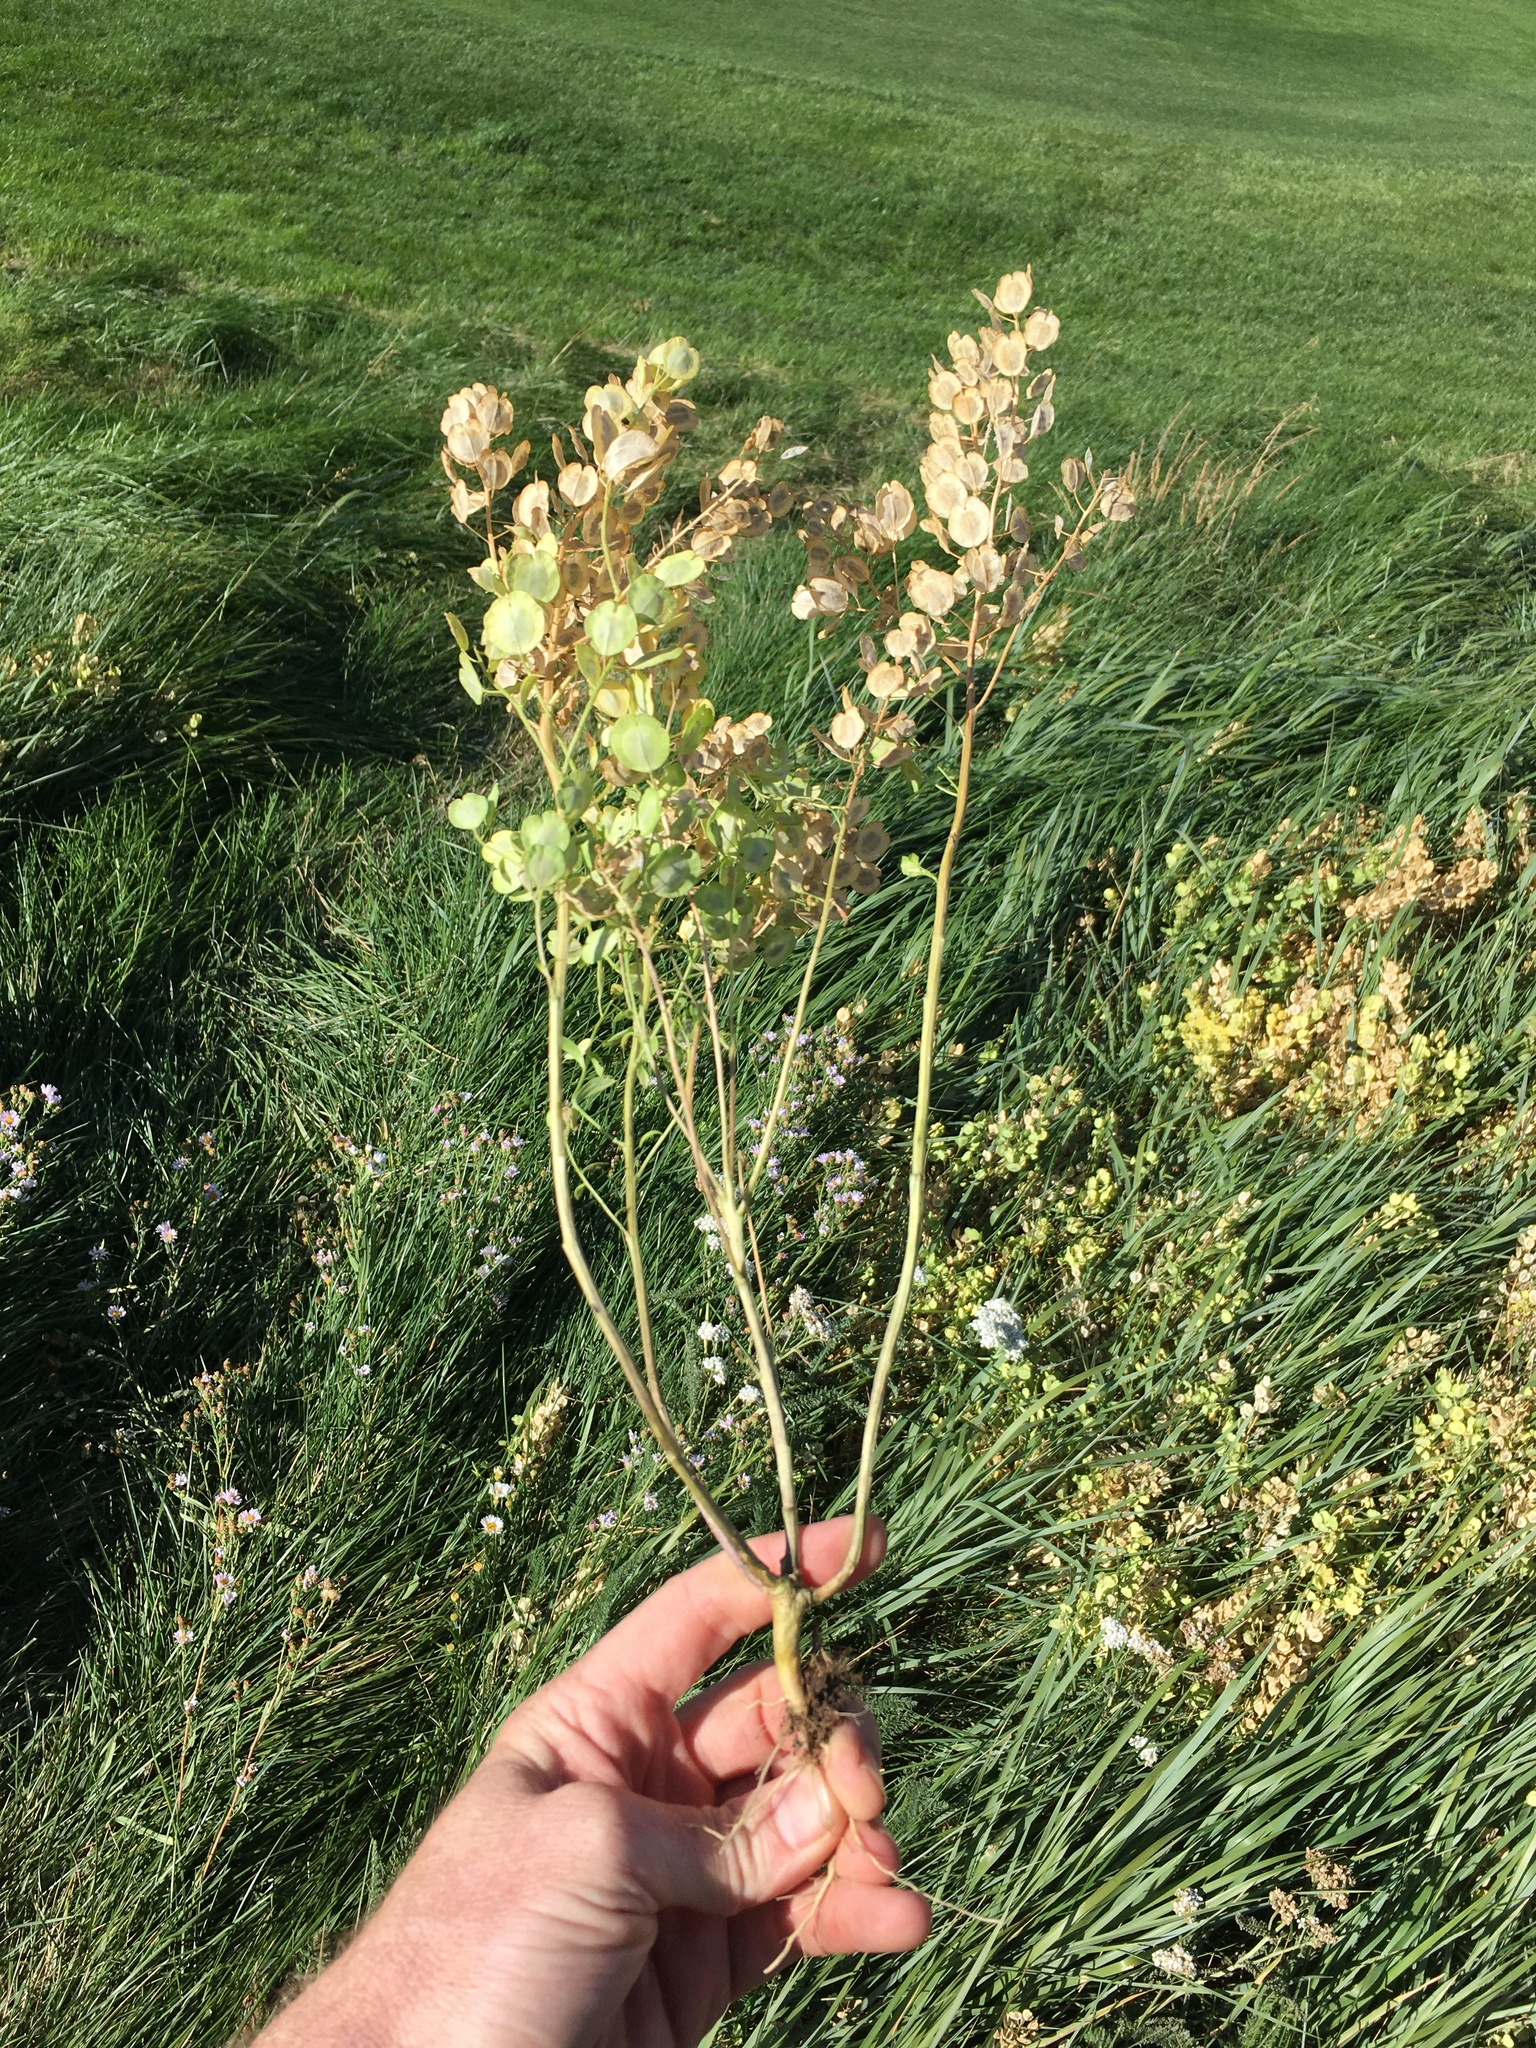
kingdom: Plantae
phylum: Tracheophyta
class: Magnoliopsida
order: Brassicales
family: Brassicaceae
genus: Thlaspi
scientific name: Thlaspi arvense
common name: Field pennycress
